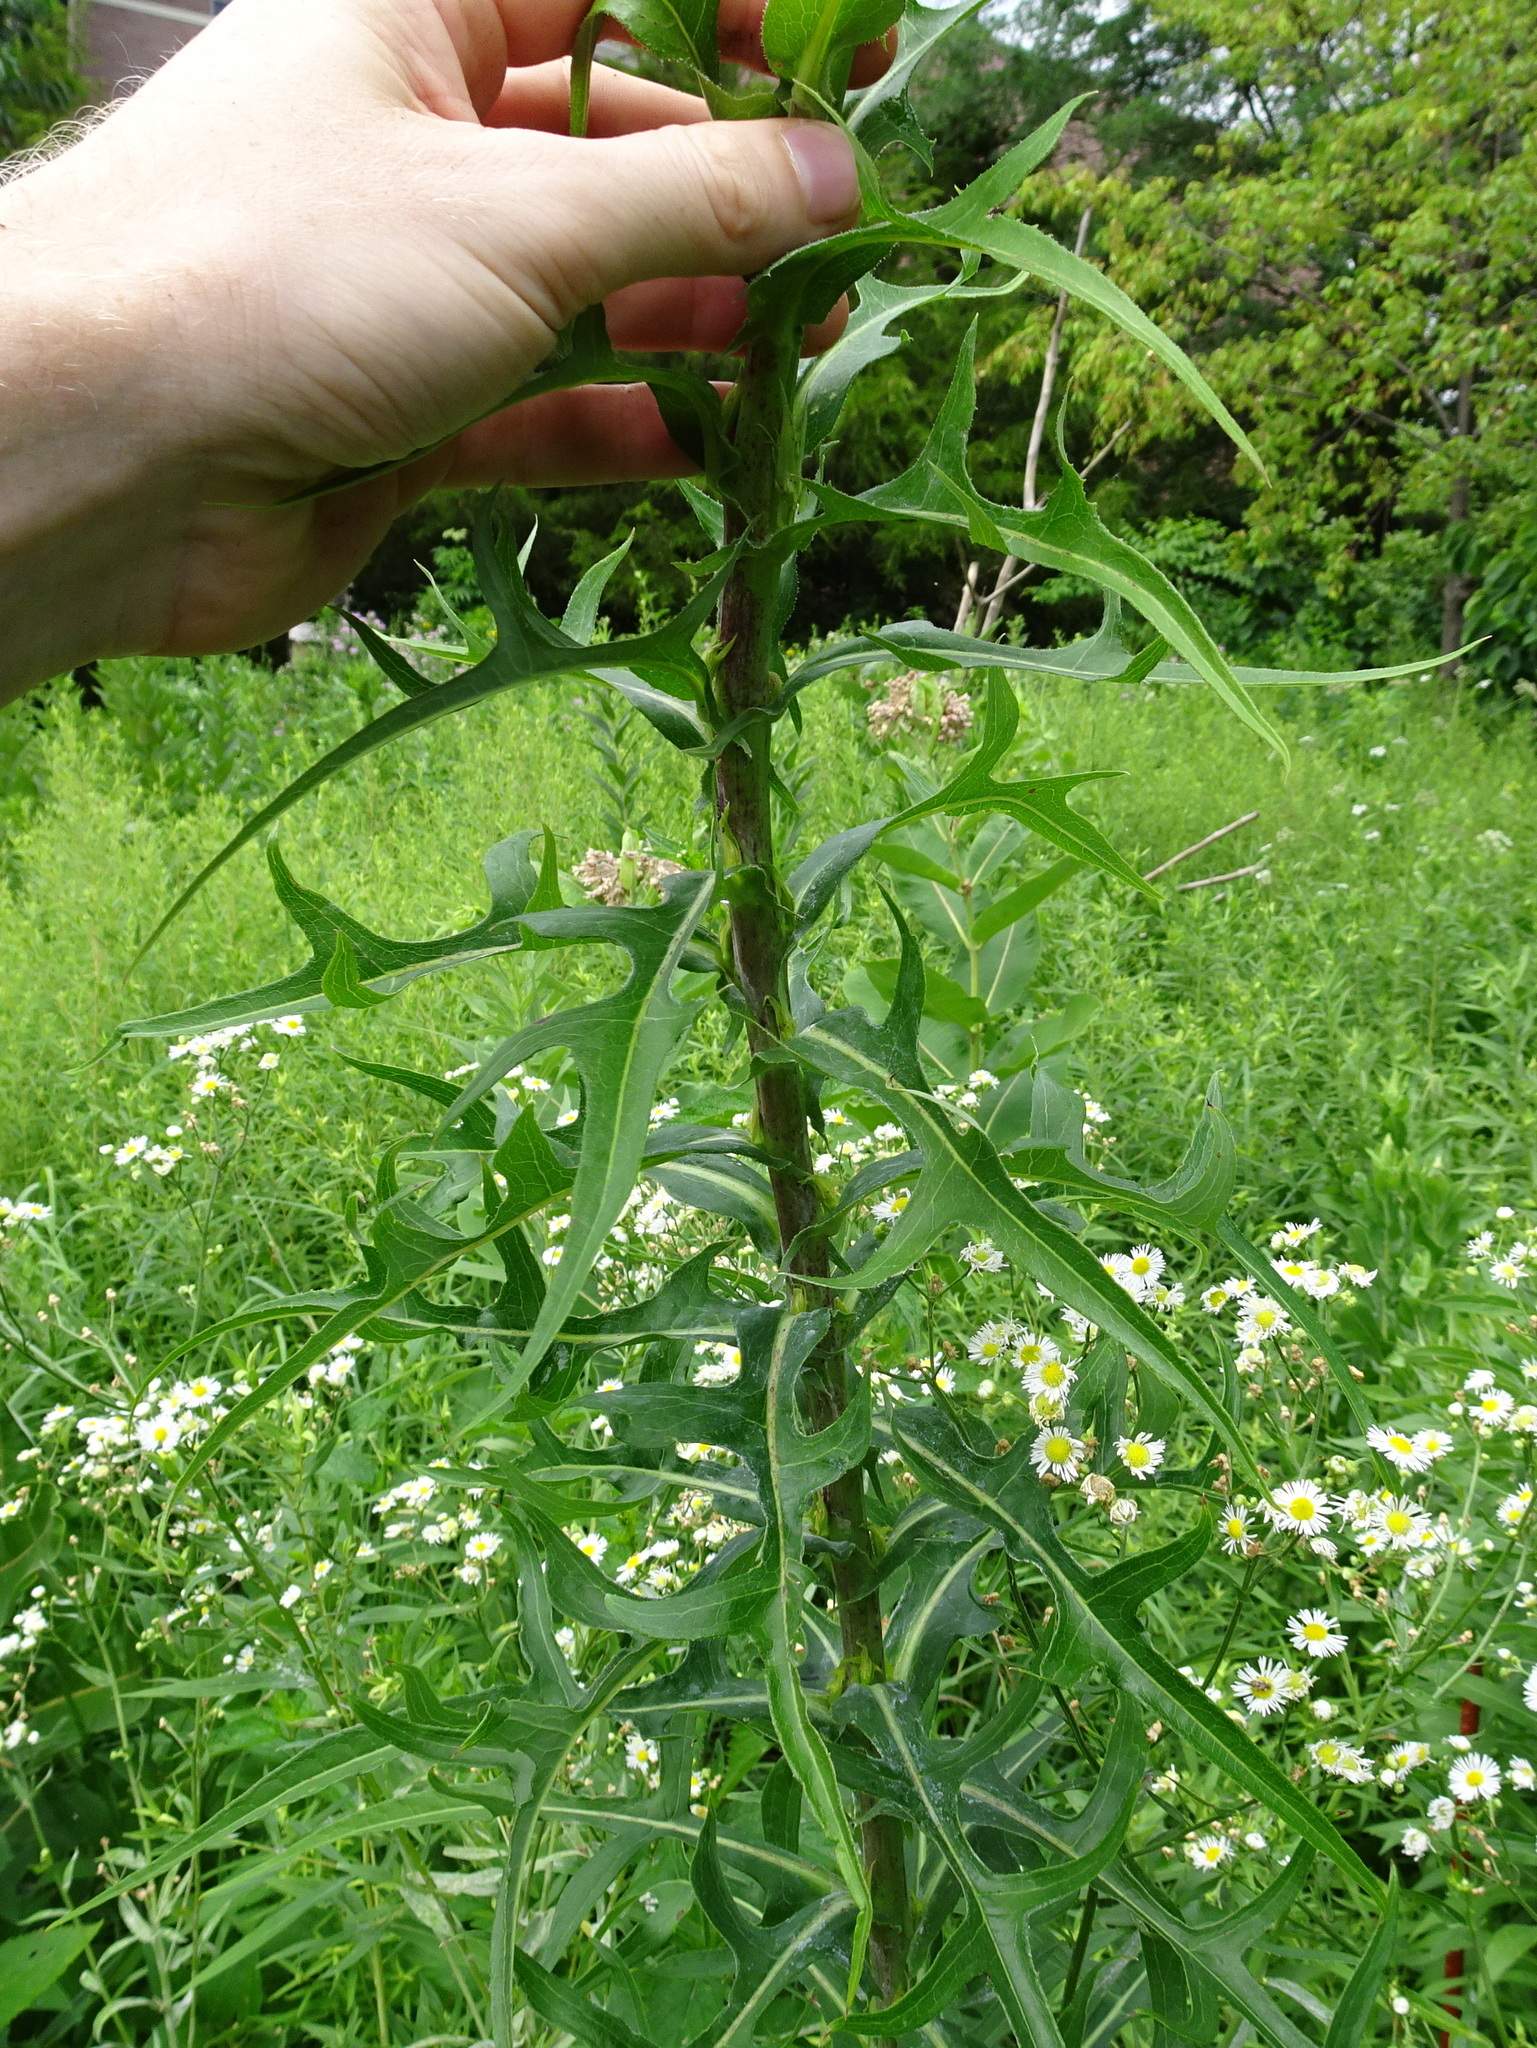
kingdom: Plantae
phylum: Tracheophyta
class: Magnoliopsida
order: Asterales
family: Asteraceae
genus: Lactuca
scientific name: Lactuca canadensis
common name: Canada lettuce
